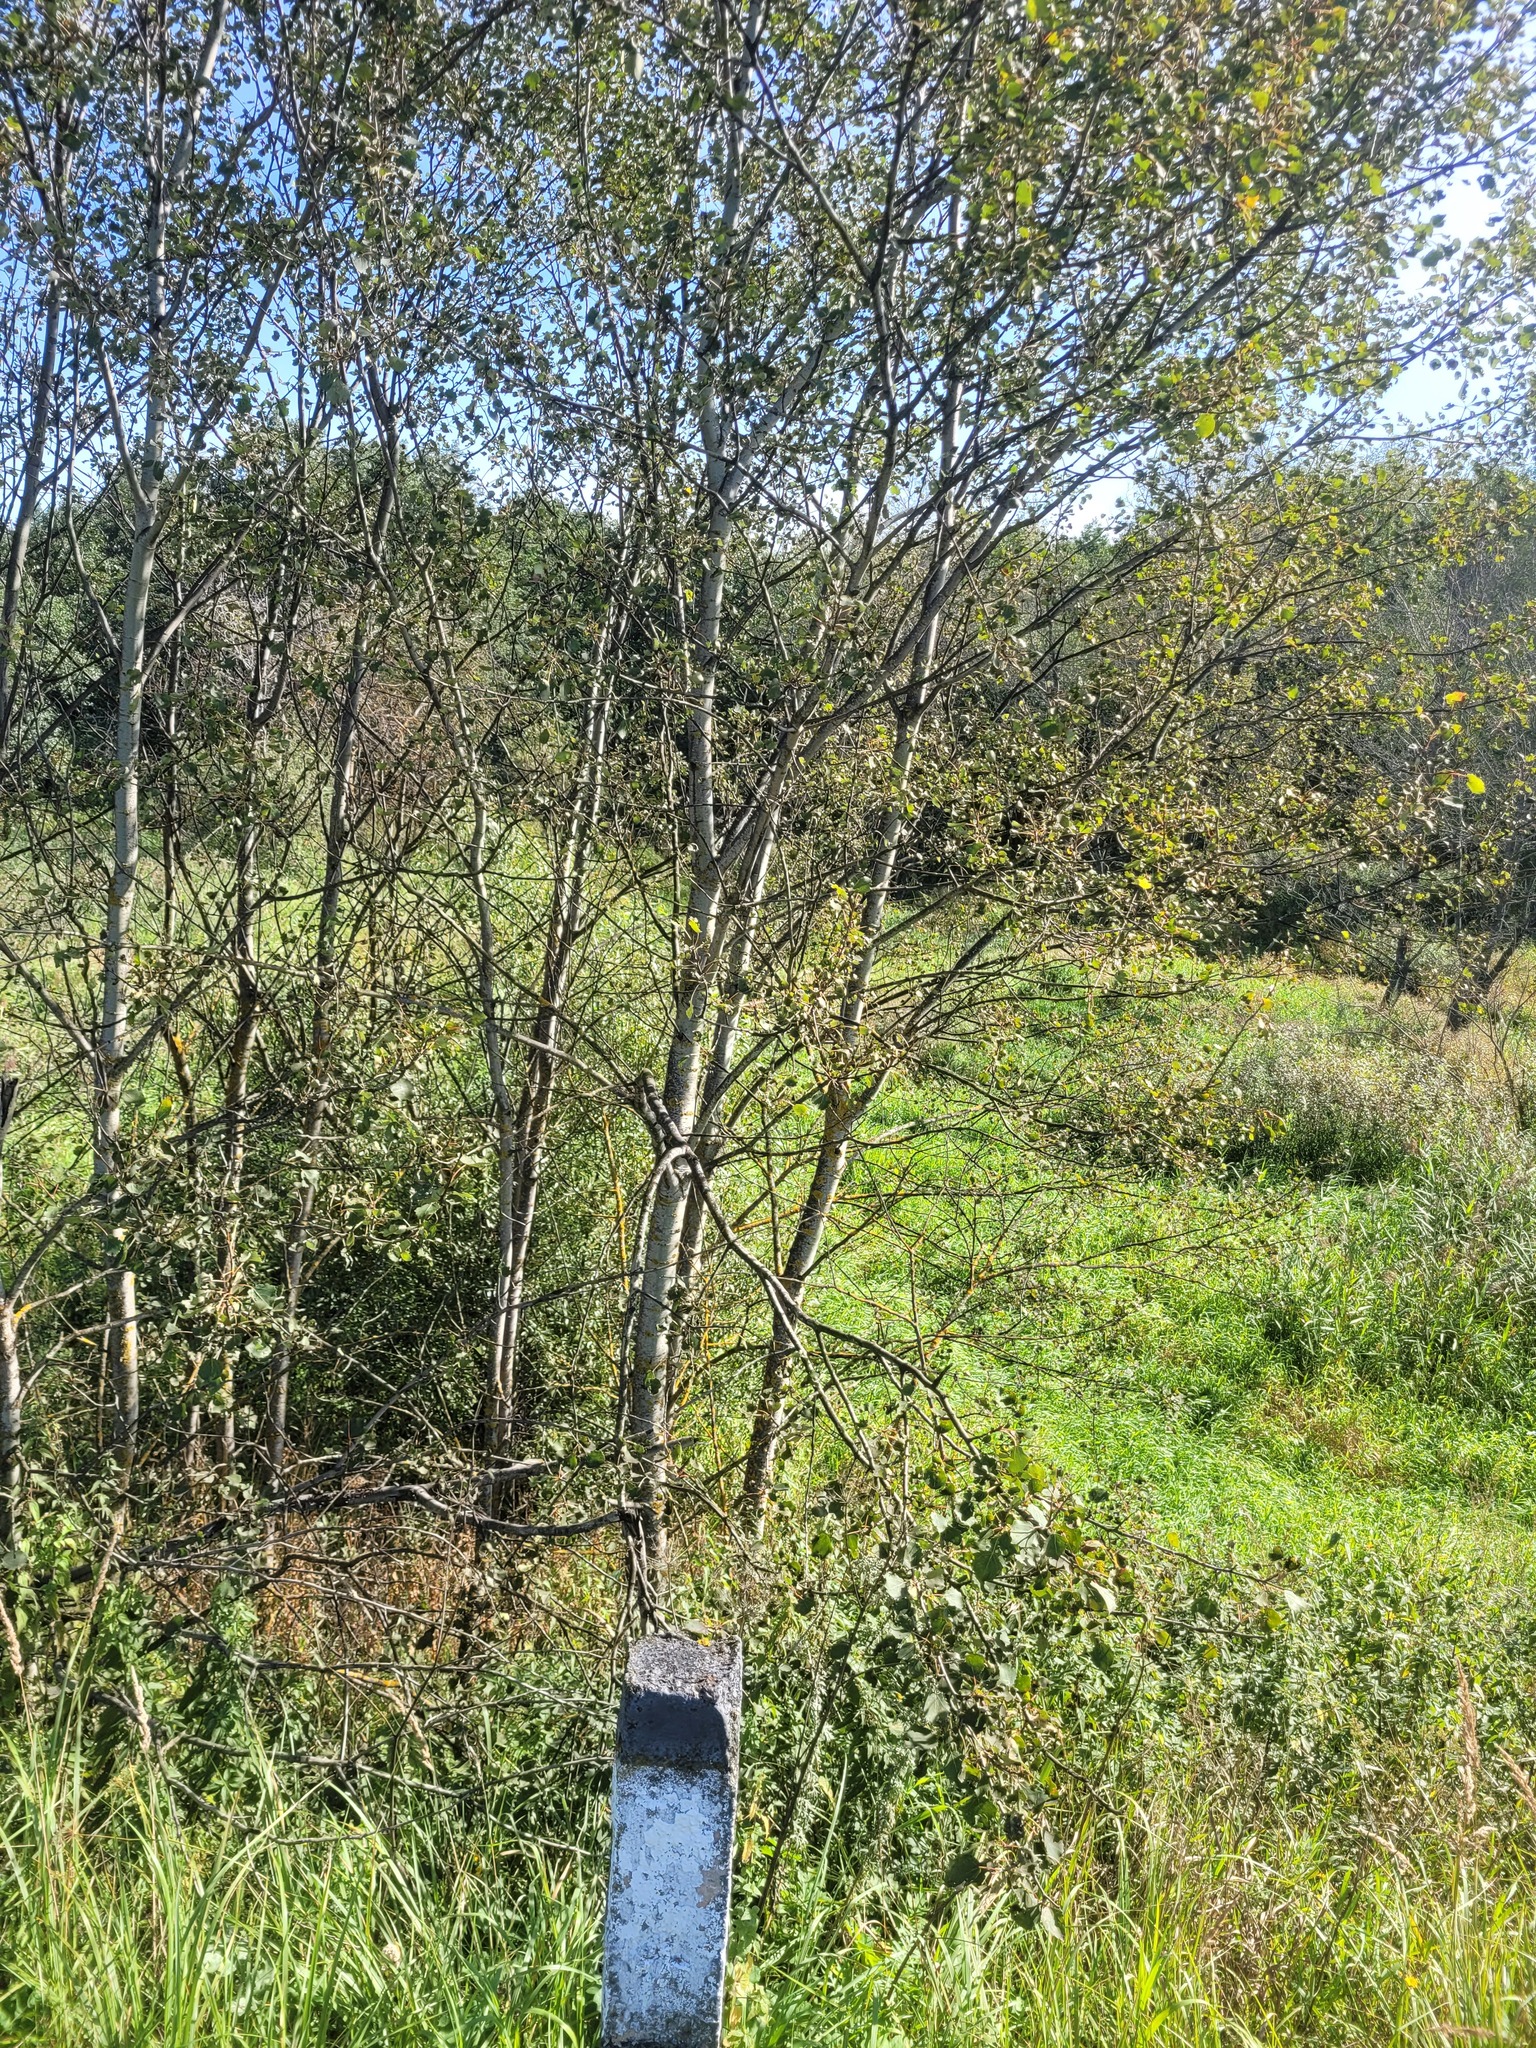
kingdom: Plantae
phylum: Tracheophyta
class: Magnoliopsida
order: Malpighiales
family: Salicaceae
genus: Populus
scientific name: Populus tremula
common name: European aspen
